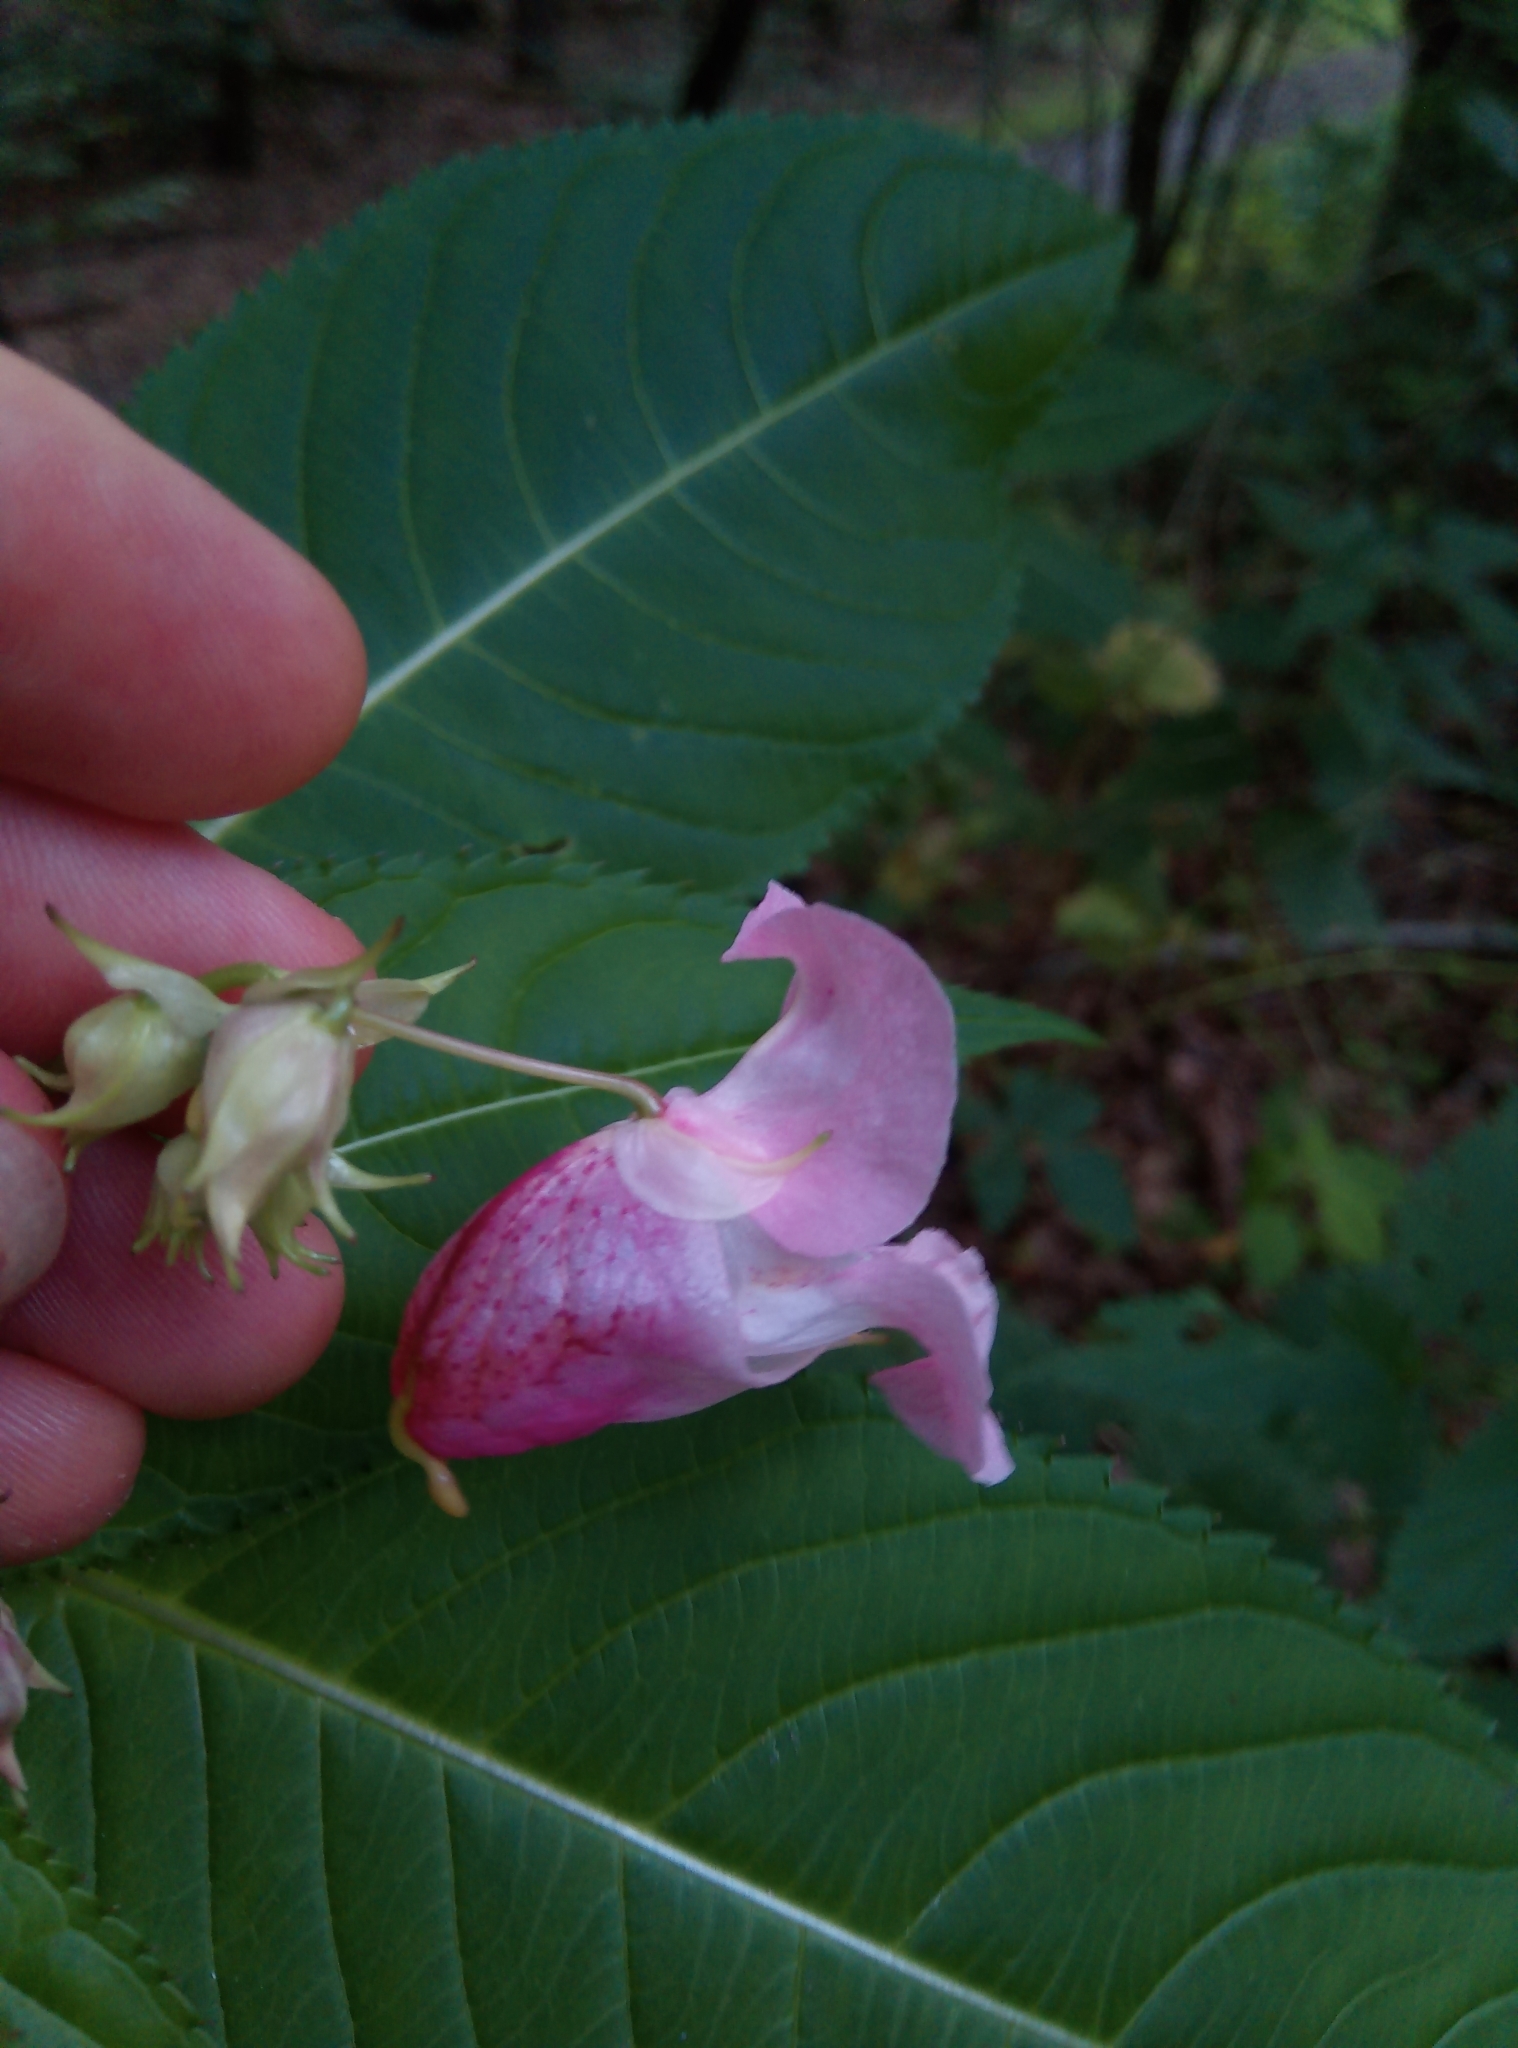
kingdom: Plantae
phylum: Tracheophyta
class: Magnoliopsida
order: Ericales
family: Balsaminaceae
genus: Impatiens
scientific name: Impatiens glandulifera
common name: Himalayan balsam
